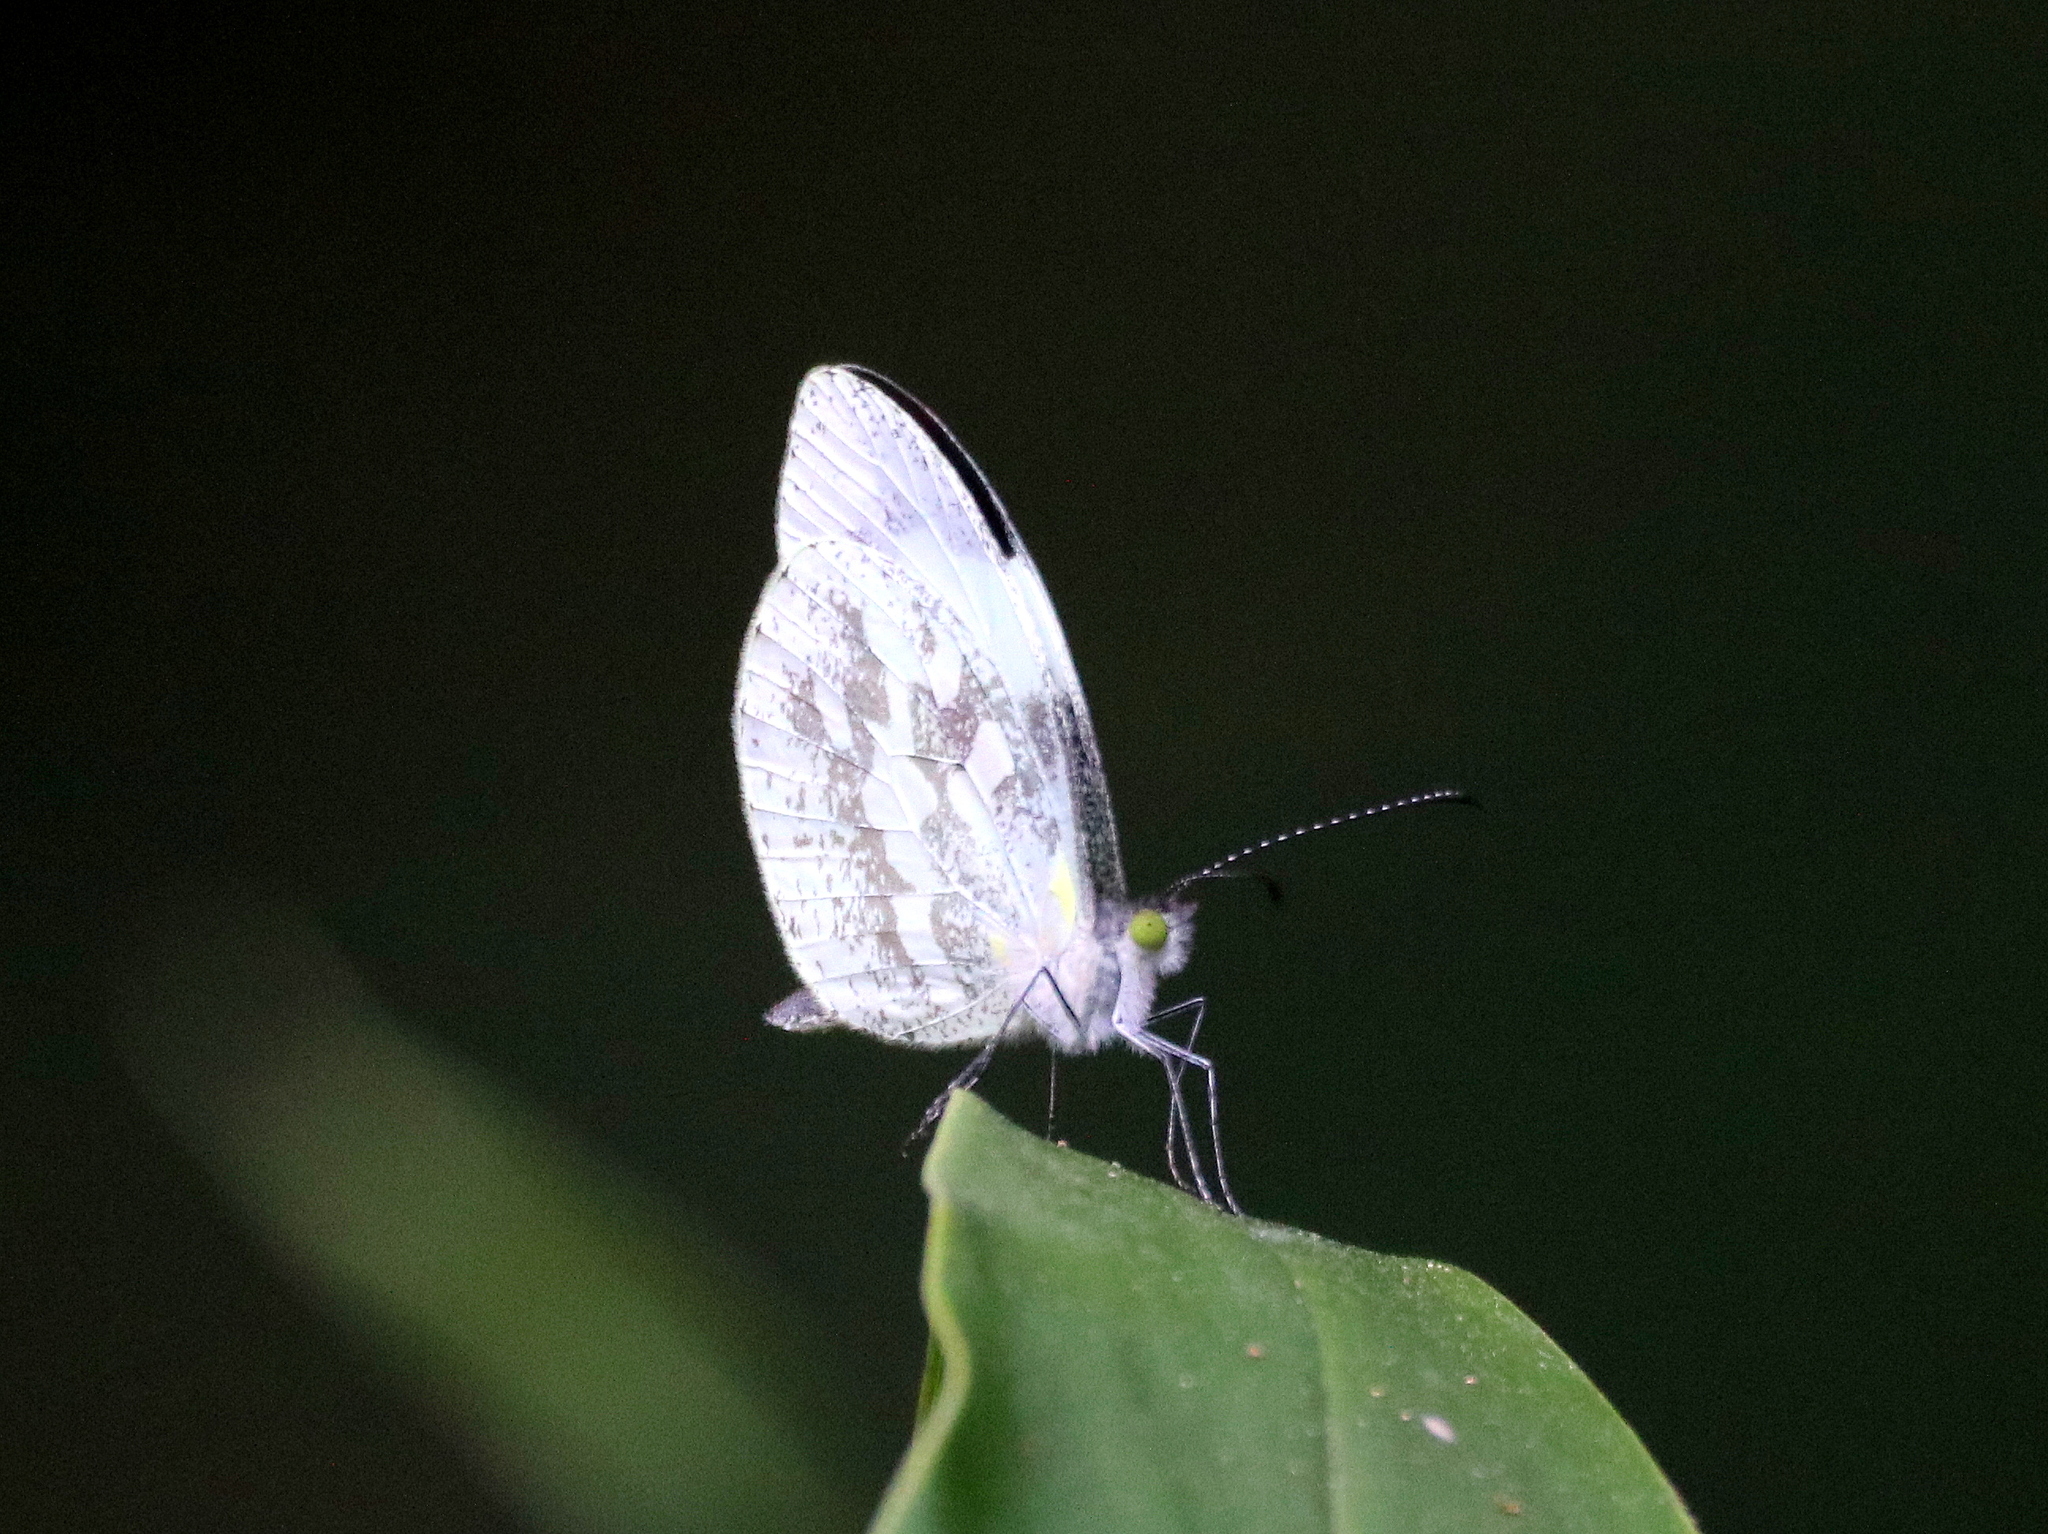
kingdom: Animalia
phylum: Arthropoda
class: Insecta
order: Lepidoptera
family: Pieridae
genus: Dismorphia
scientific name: Dismorphia thermesia
